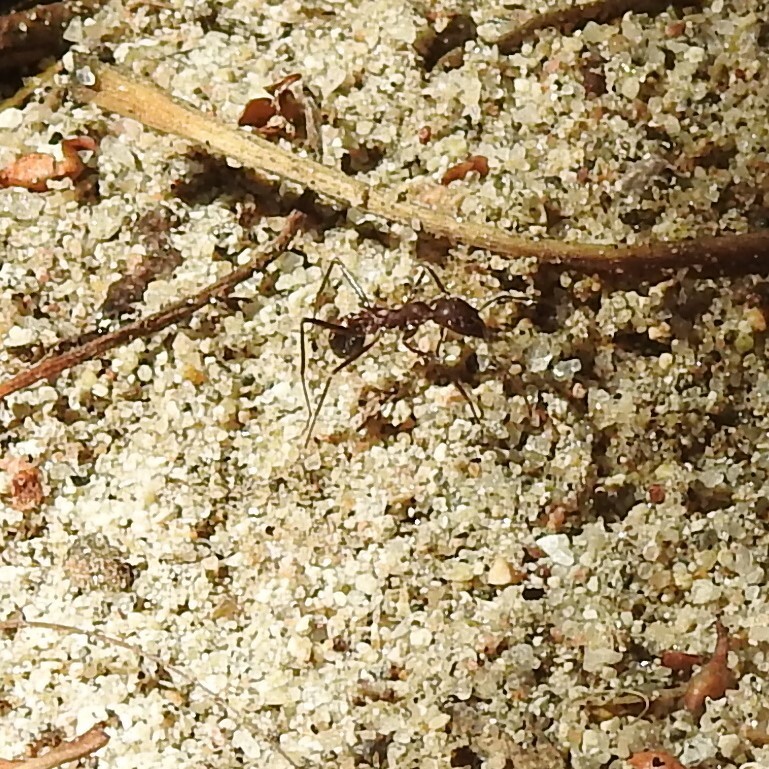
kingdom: Animalia
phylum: Arthropoda
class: Insecta
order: Hymenoptera
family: Formicidae
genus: Novomessor
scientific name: Novomessor albisetosa
